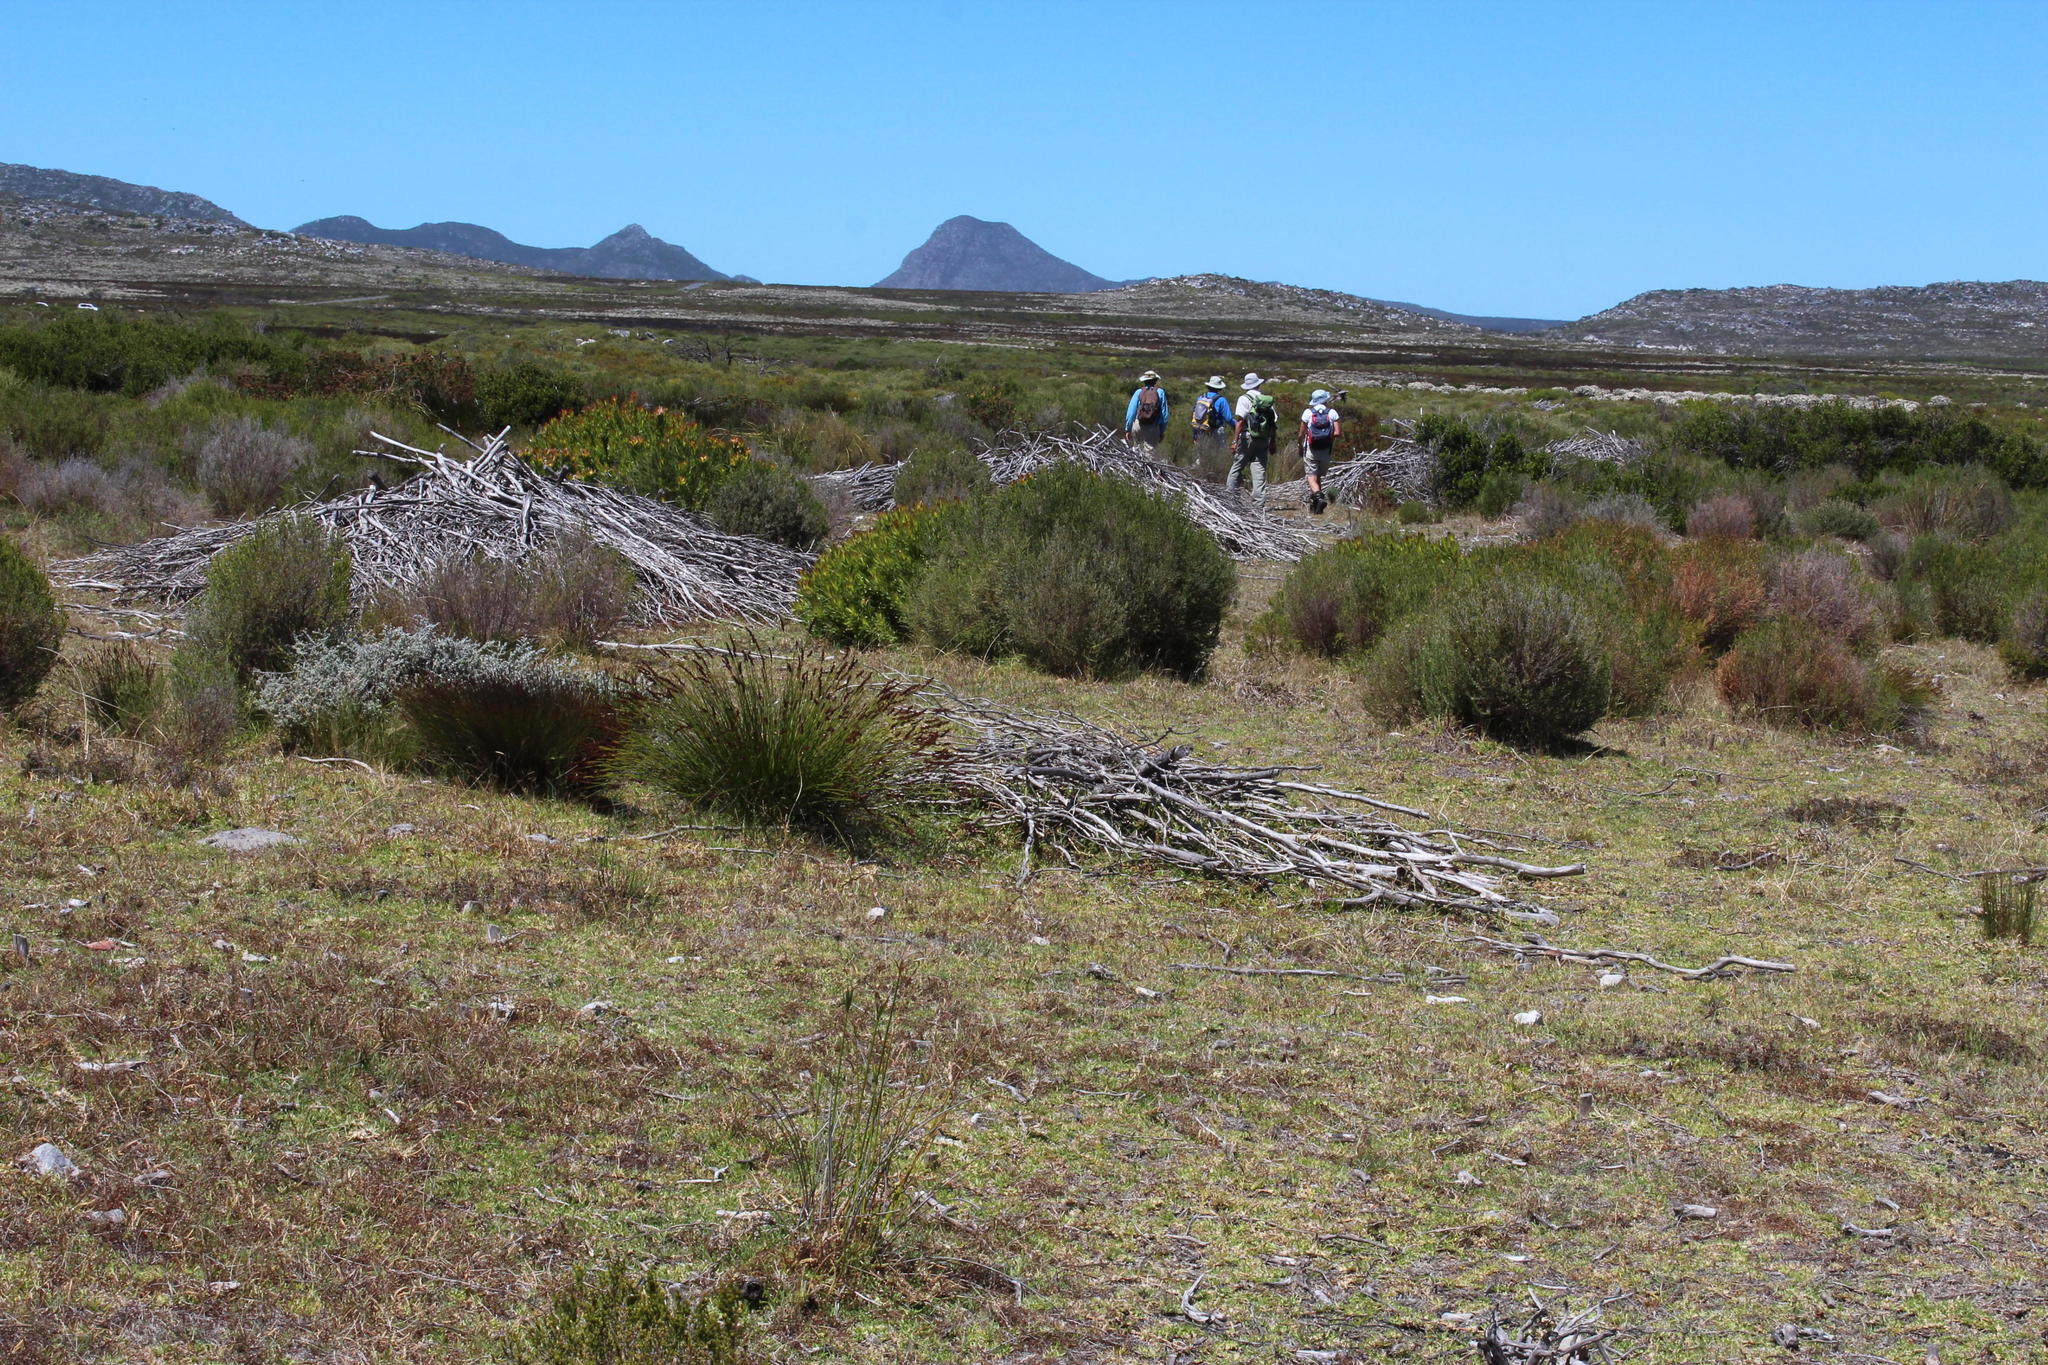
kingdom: Plantae
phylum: Tracheophyta
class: Magnoliopsida
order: Fabales
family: Fabaceae
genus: Acacia
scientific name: Acacia saligna
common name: Orange wattle
